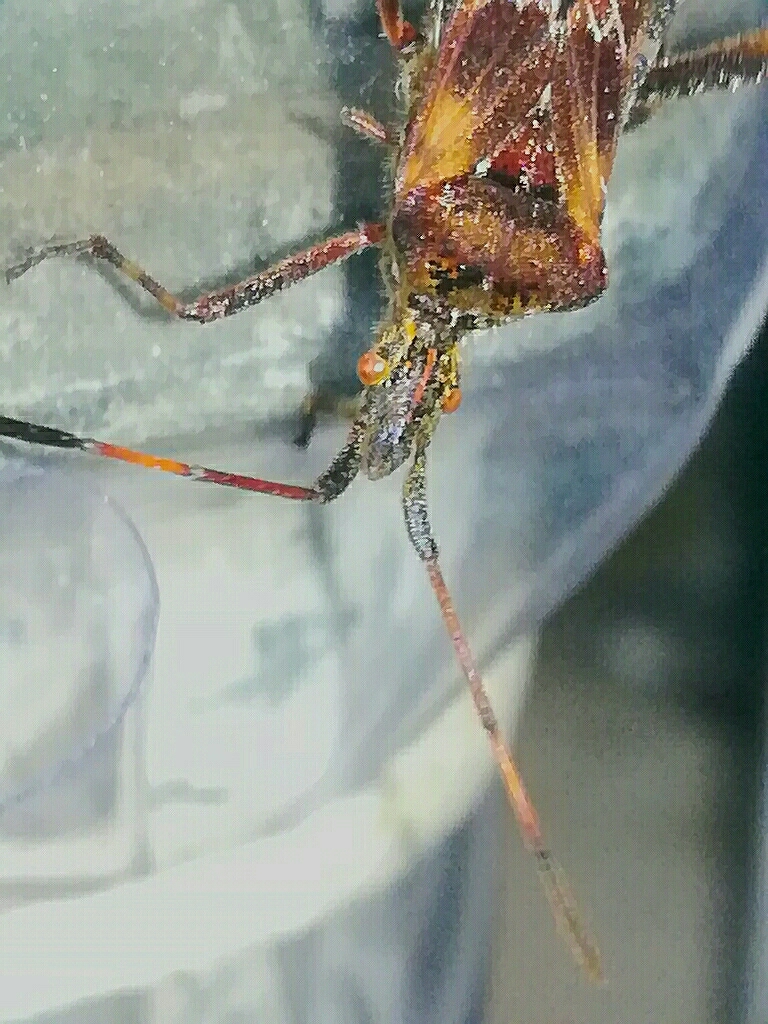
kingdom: Animalia
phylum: Arthropoda
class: Insecta
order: Hemiptera
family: Coreidae
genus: Leptoglossus
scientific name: Leptoglossus occidentalis
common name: Western conifer-seed bug
